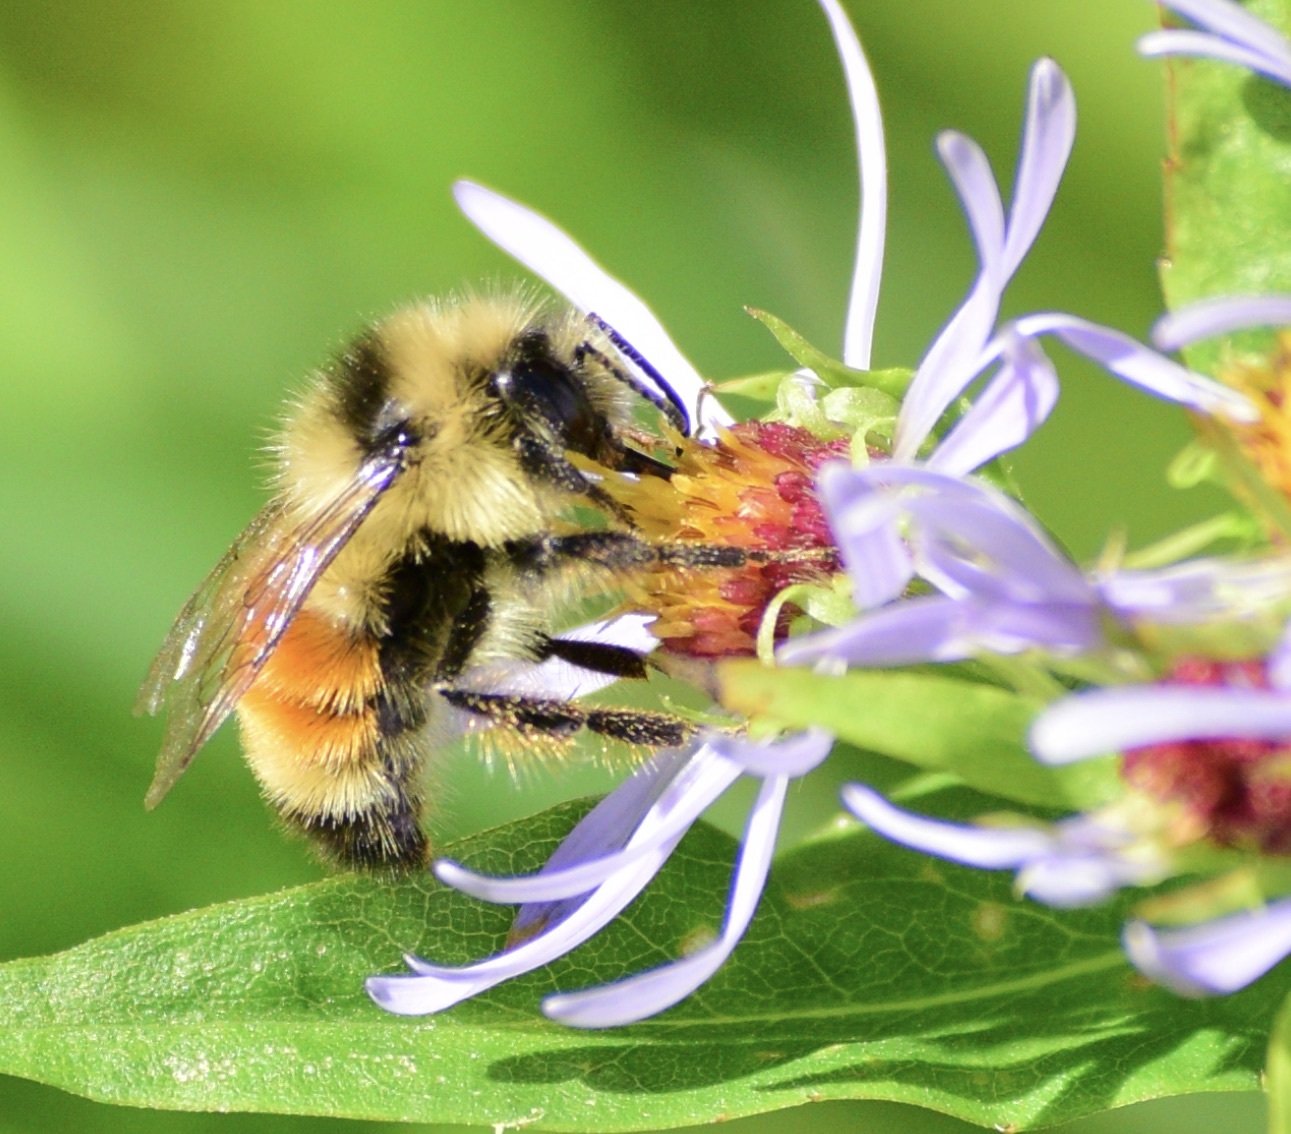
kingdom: Animalia
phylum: Arthropoda
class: Insecta
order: Hymenoptera
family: Apidae
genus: Bombus
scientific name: Bombus ternarius
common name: Tri-colored bumble bee
